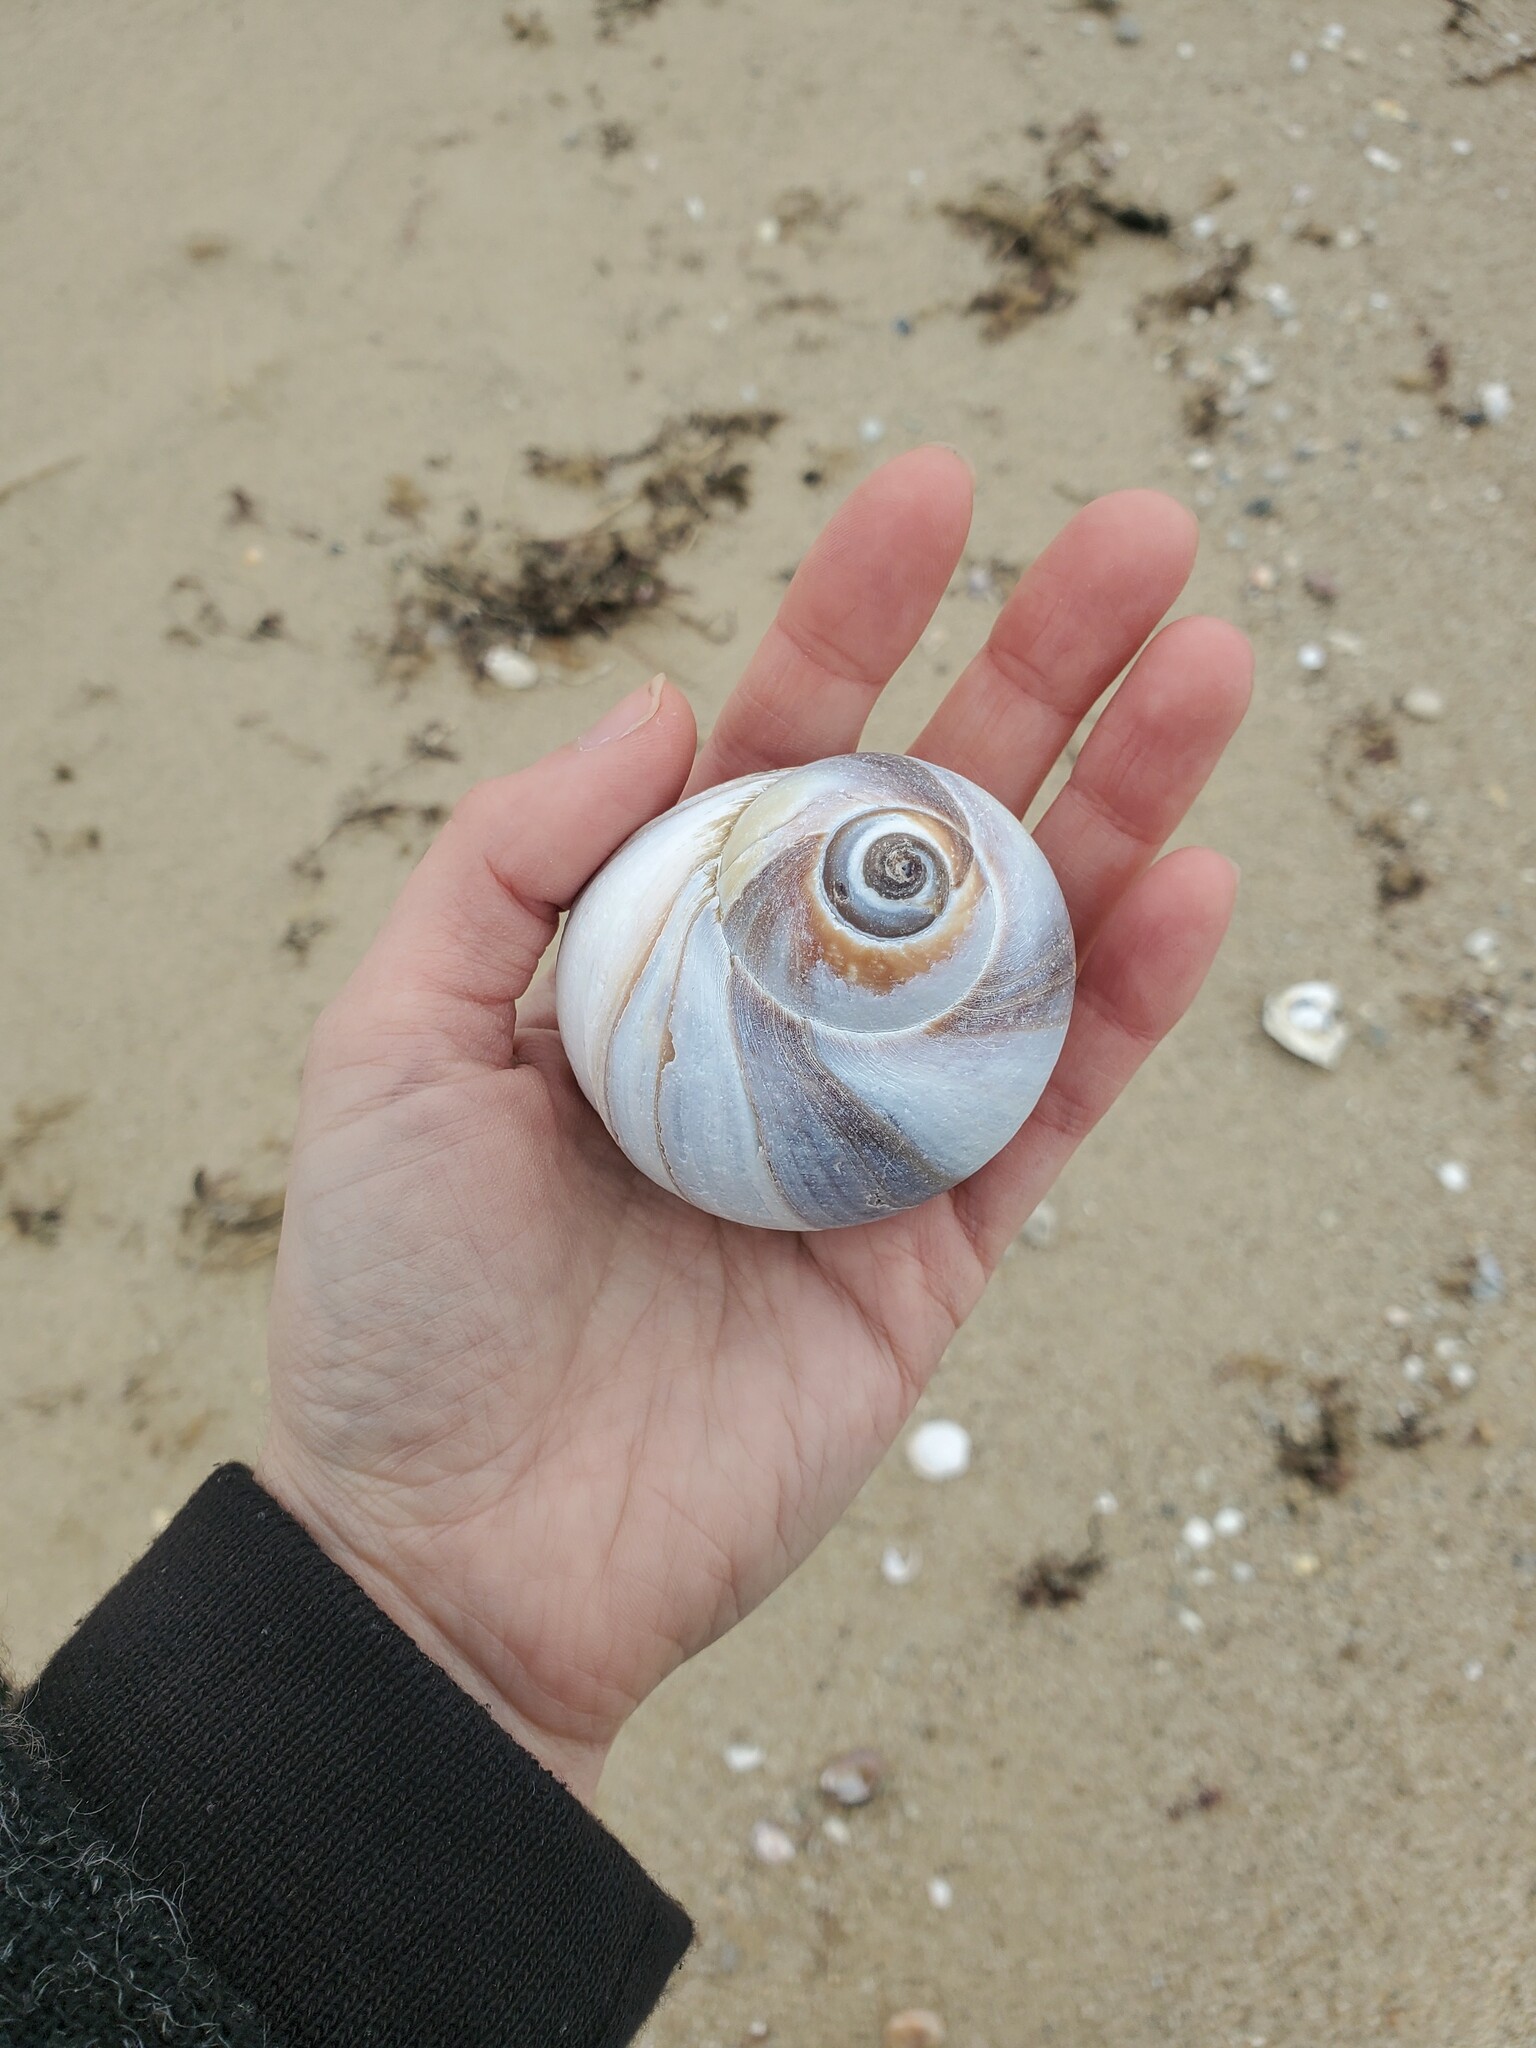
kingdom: Animalia
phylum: Mollusca
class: Gastropoda
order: Littorinimorpha
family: Naticidae
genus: Neverita
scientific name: Neverita duplicata
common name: Lobed moonsnail
